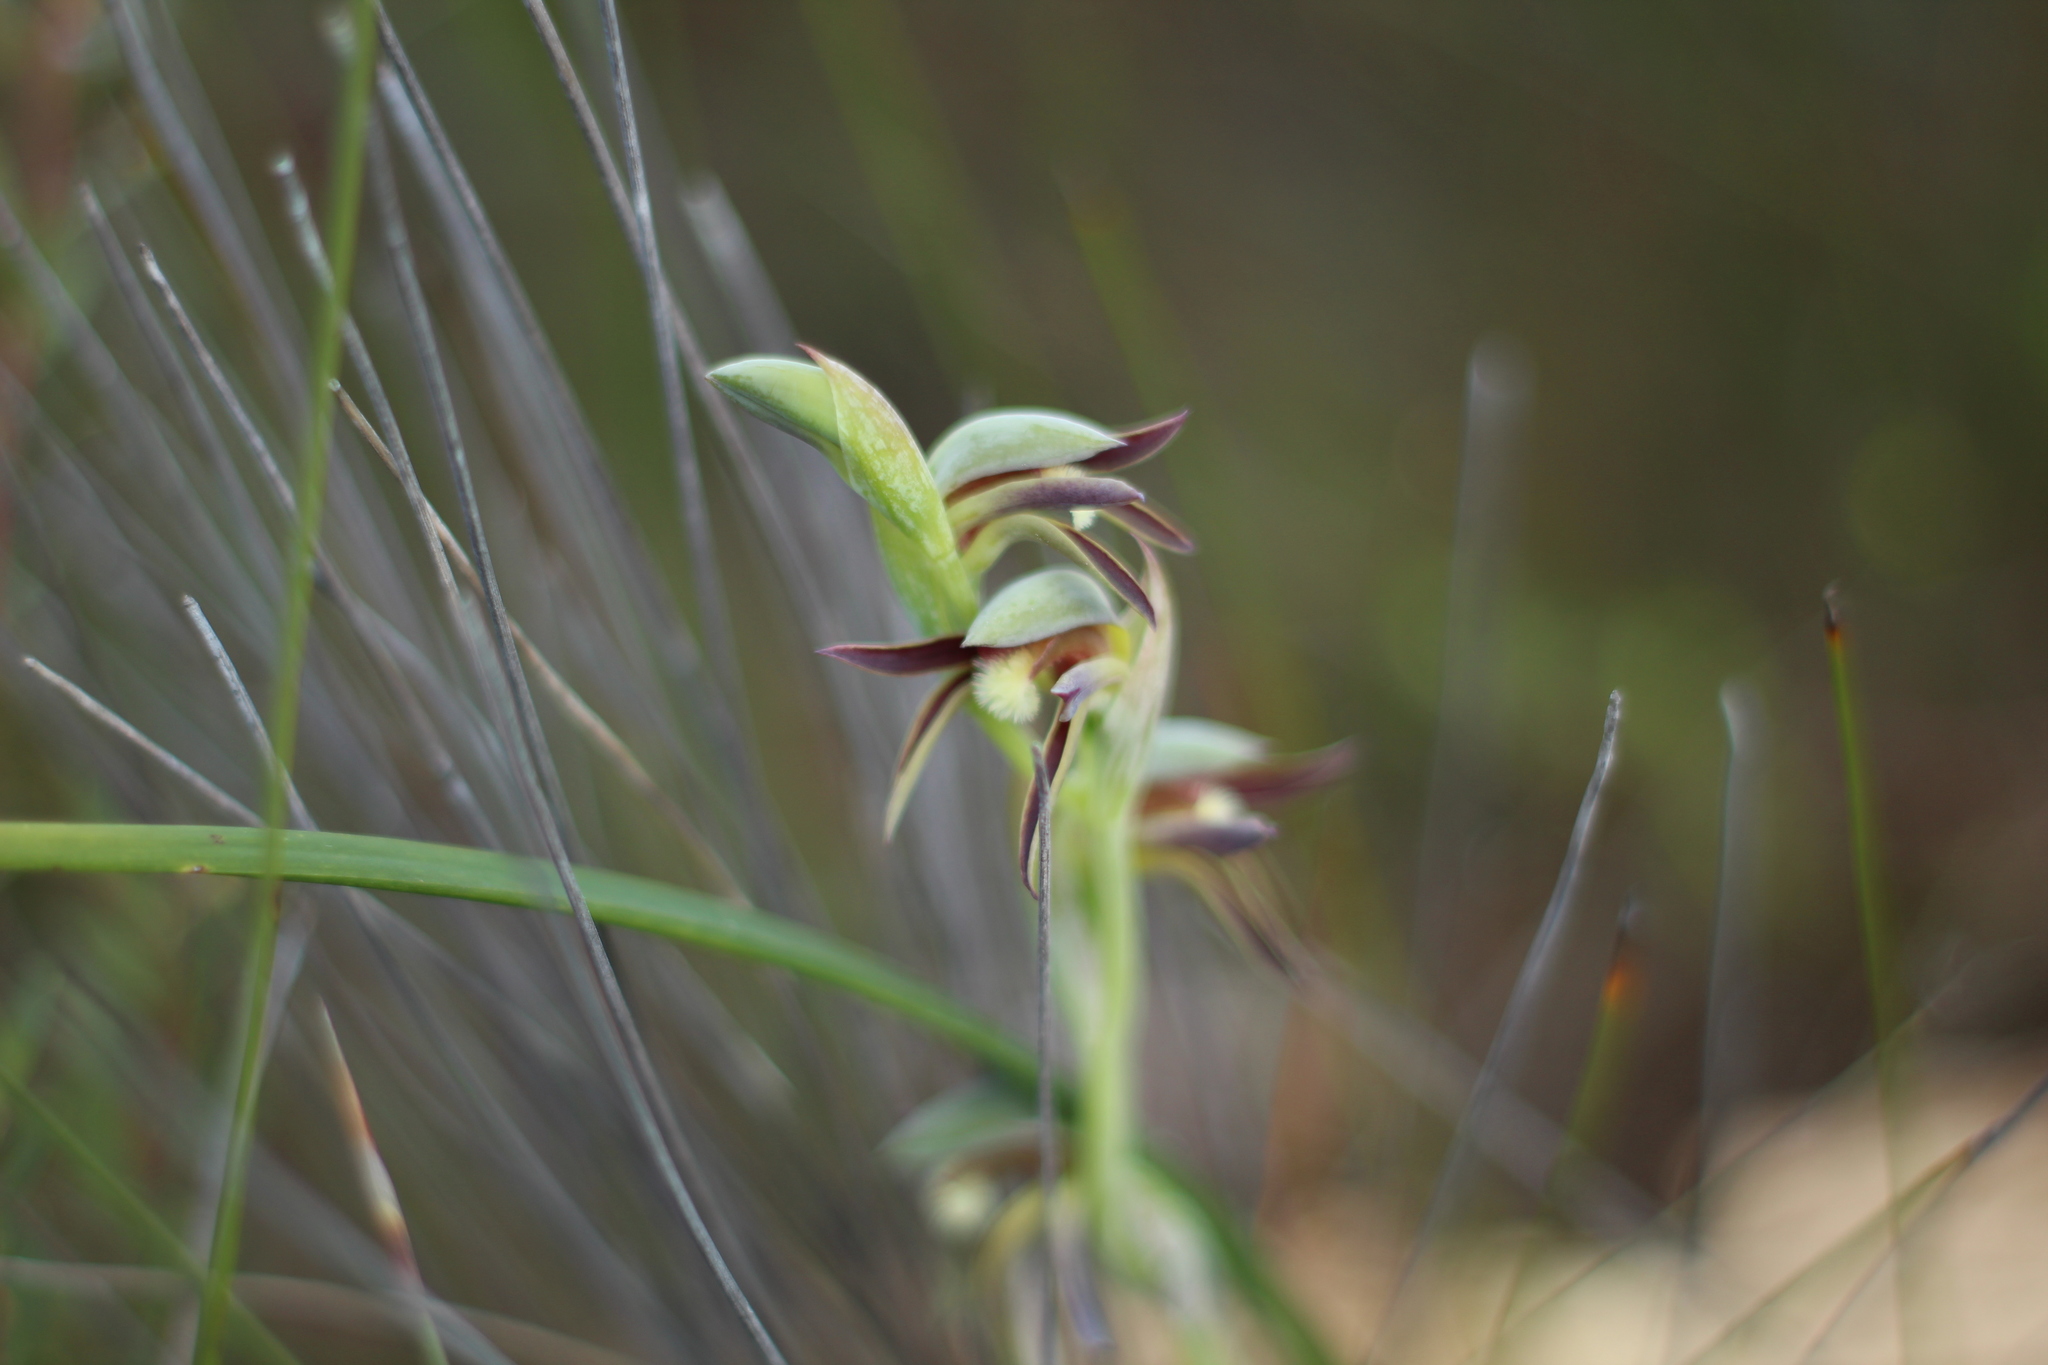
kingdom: Plantae
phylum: Tracheophyta
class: Liliopsida
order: Asparagales
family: Orchidaceae
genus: Lyperanthus
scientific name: Lyperanthus serratus
